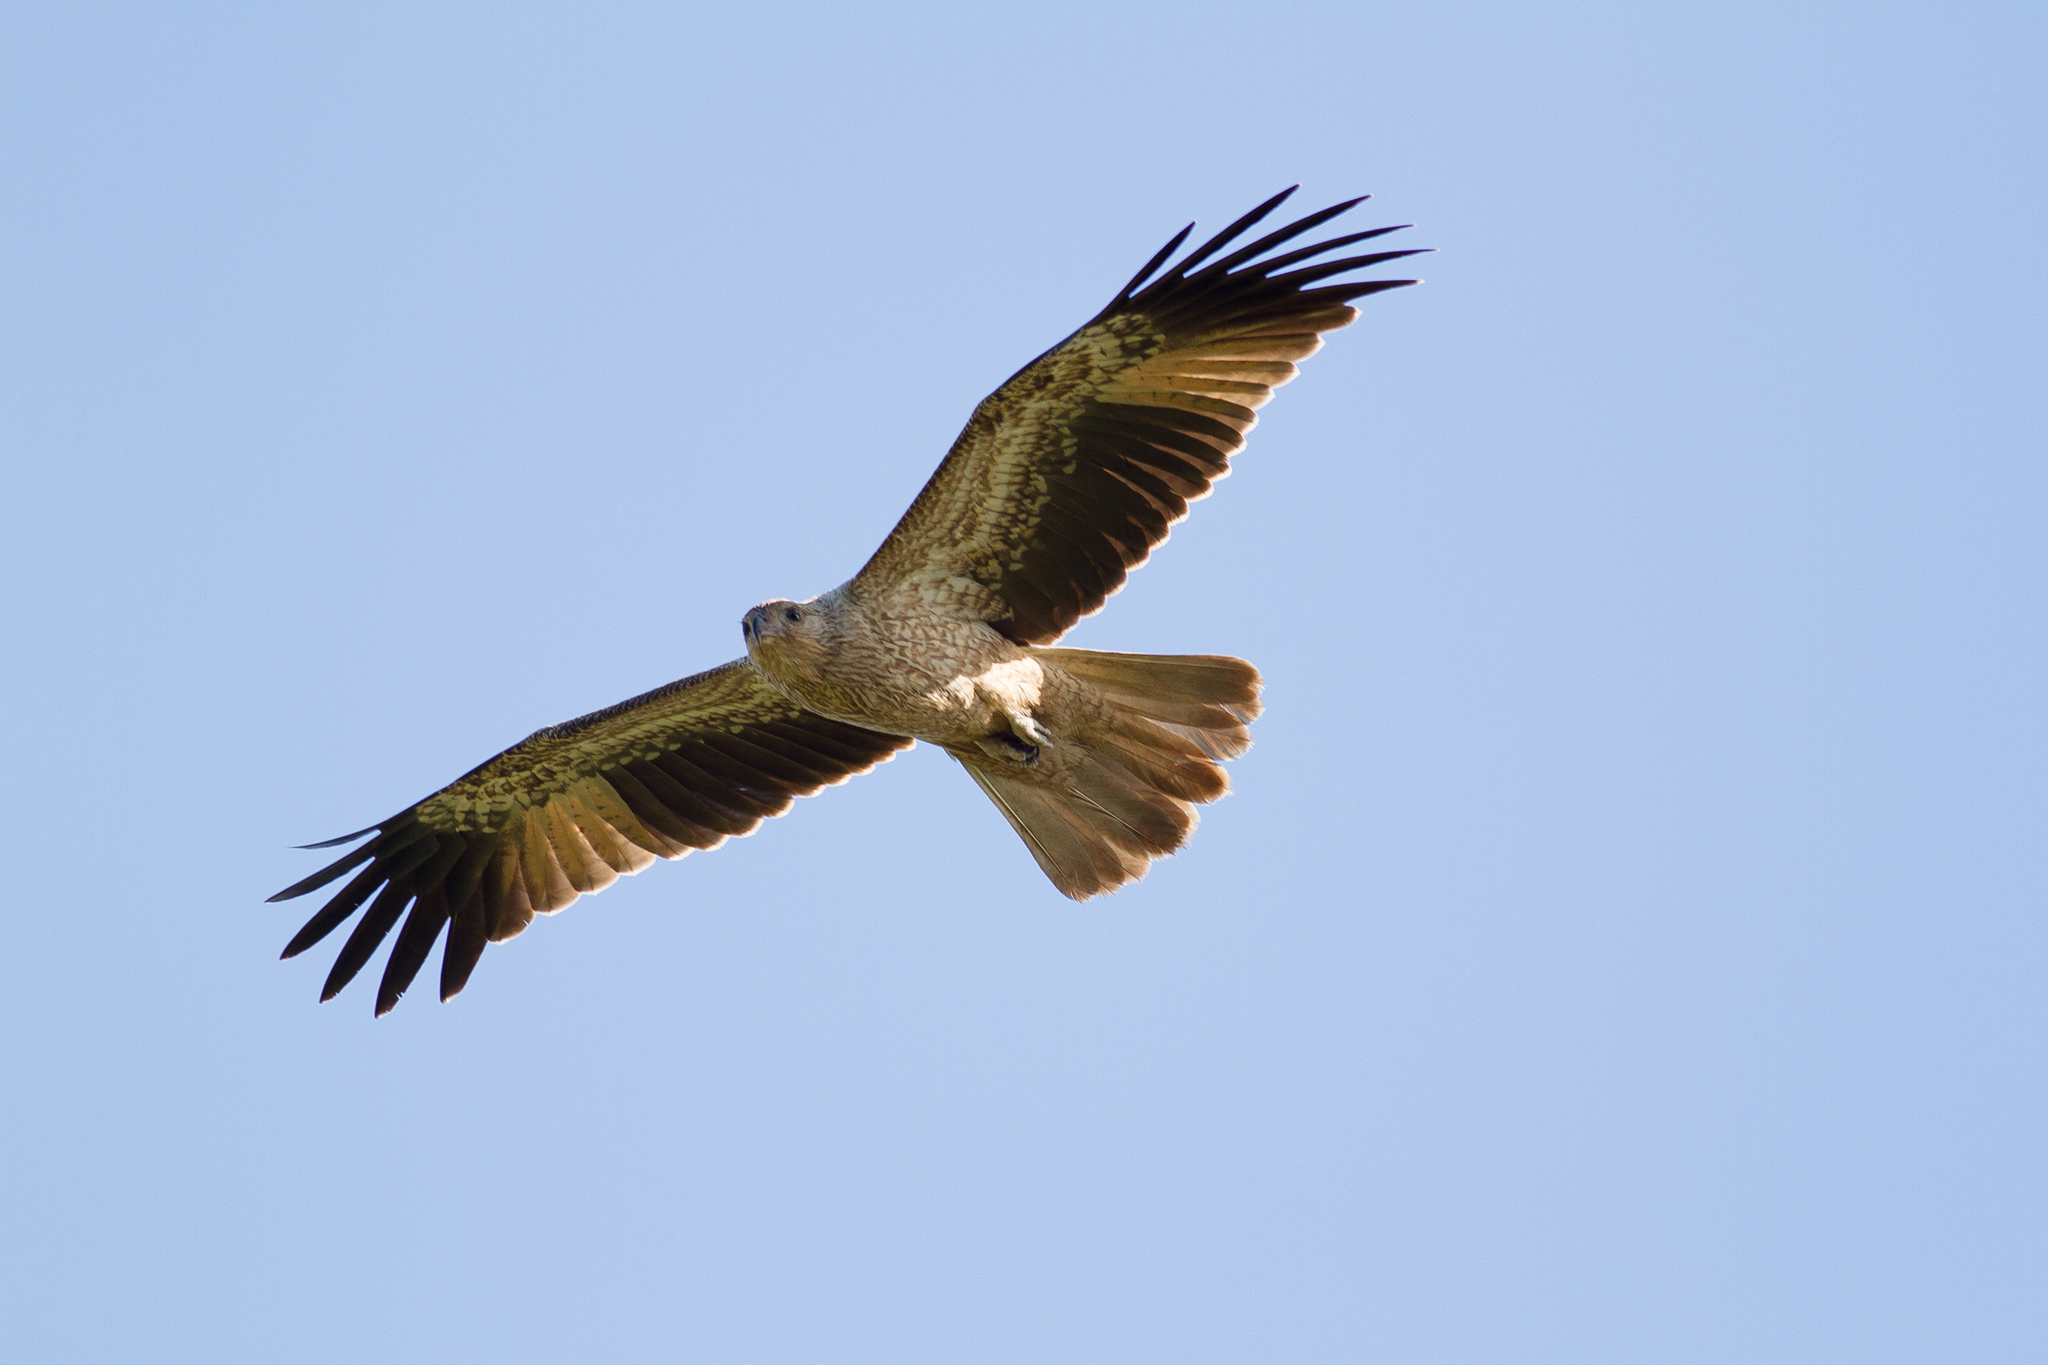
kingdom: Animalia
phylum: Chordata
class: Aves
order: Accipitriformes
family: Accipitridae
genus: Haliastur
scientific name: Haliastur sphenurus
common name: Whistling kite
